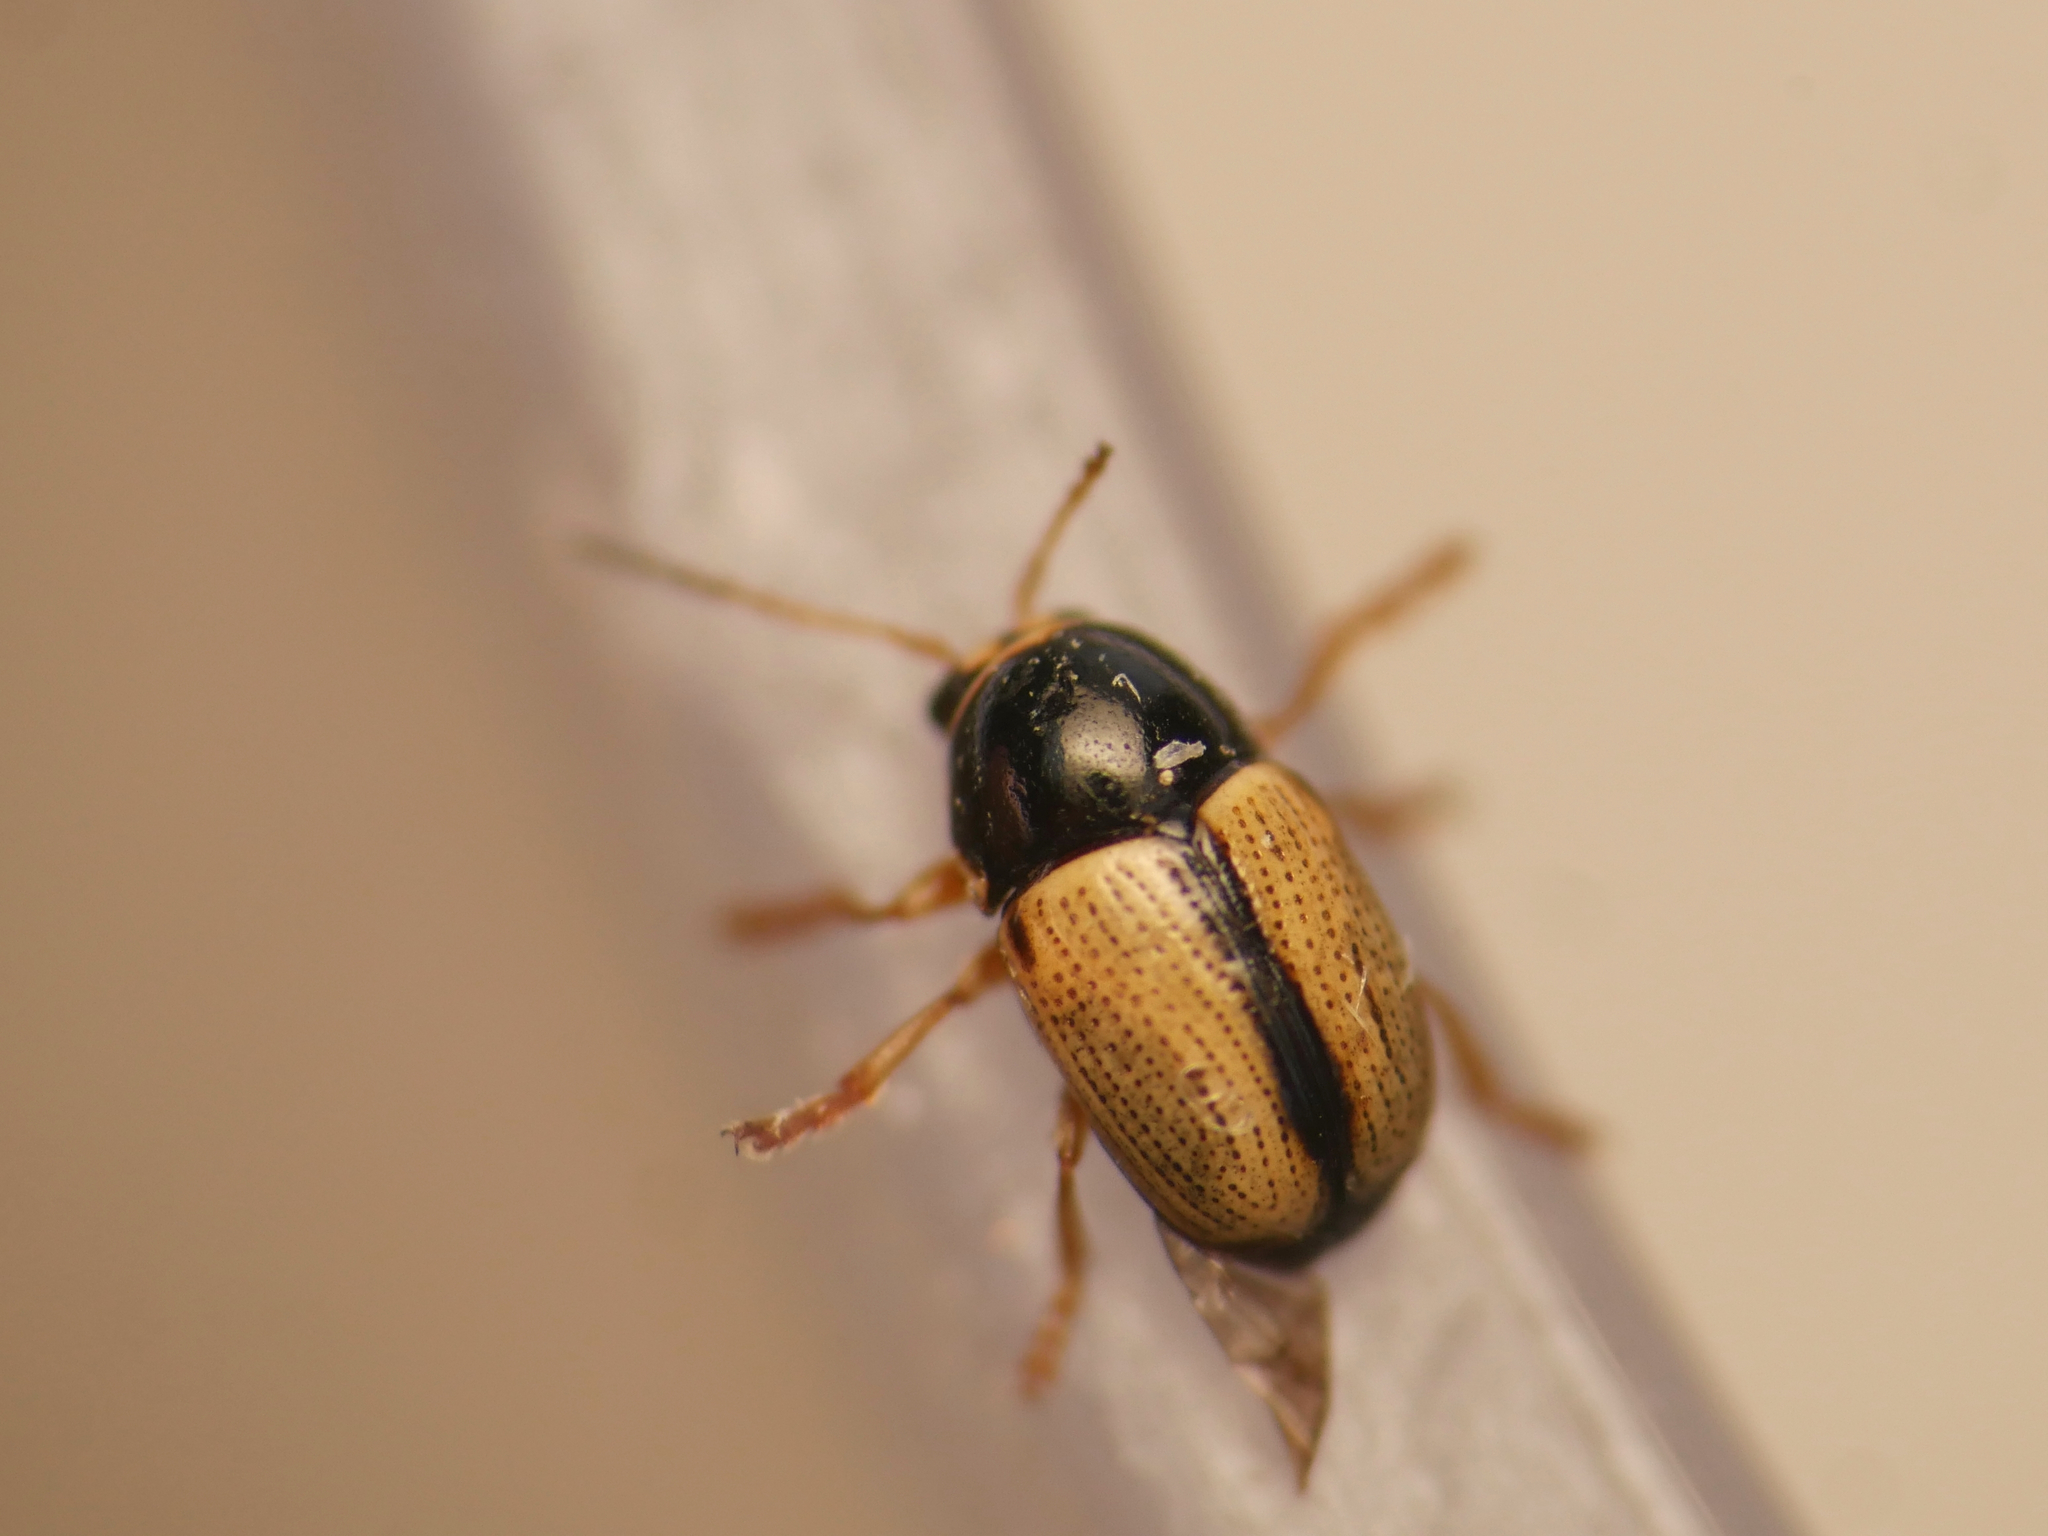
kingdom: Animalia
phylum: Arthropoda
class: Insecta
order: Coleoptera
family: Chrysomelidae
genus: Cryptocephalus
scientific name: Cryptocephalus pygmaeus
